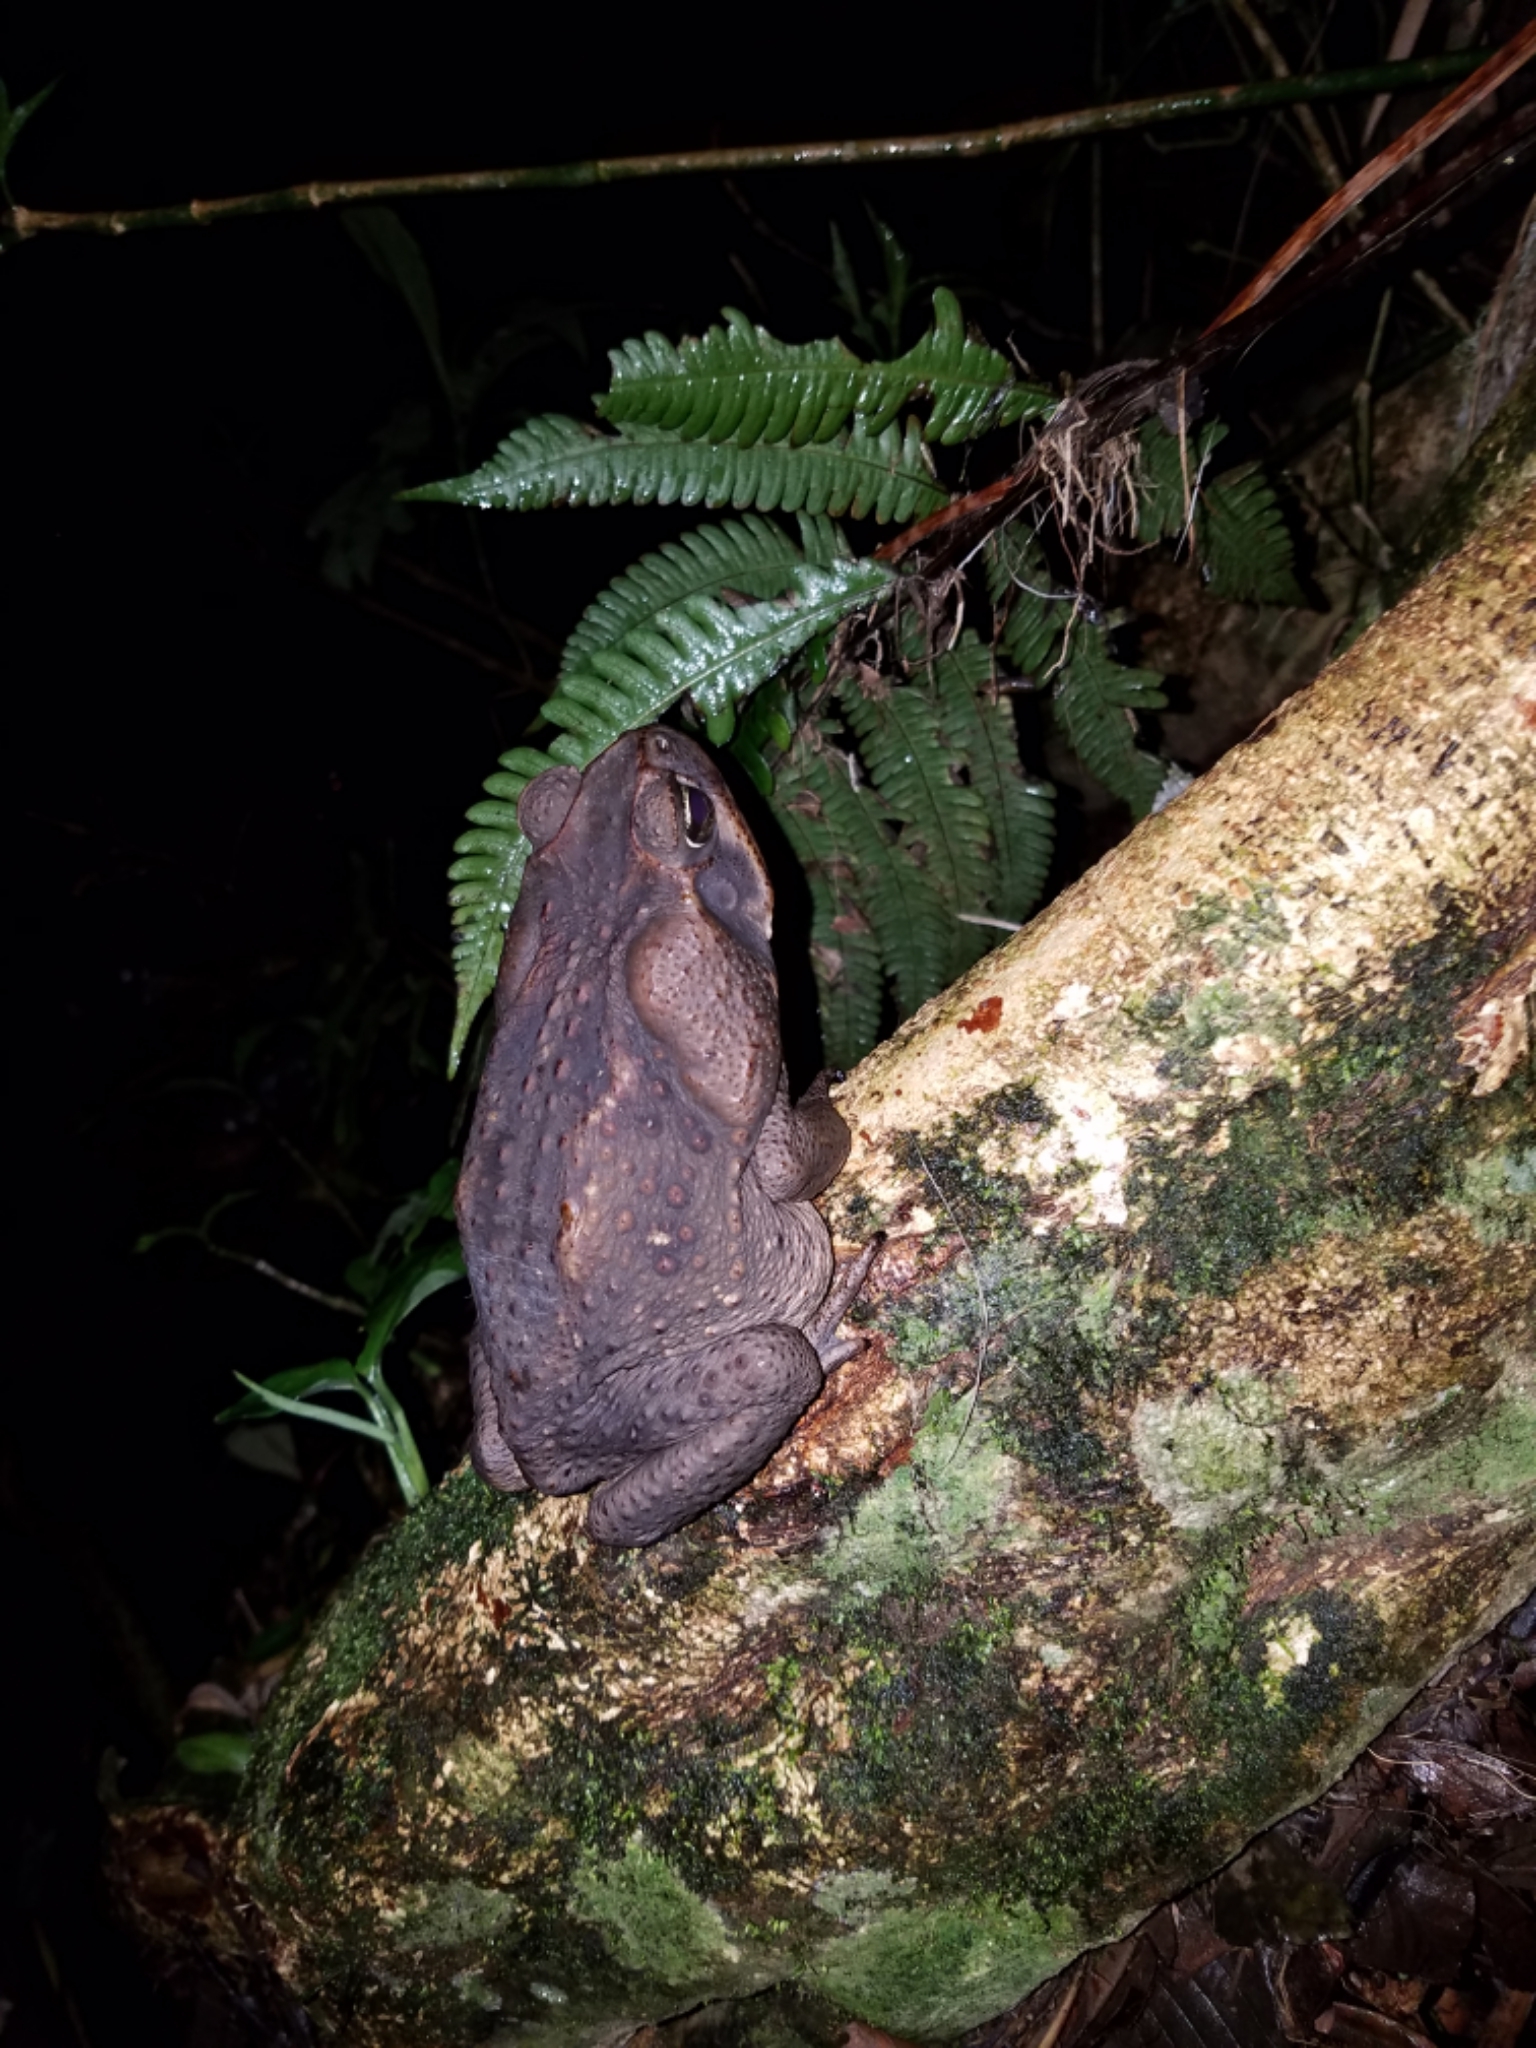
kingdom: Animalia
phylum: Chordata
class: Amphibia
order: Anura
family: Bufonidae
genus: Rhinella
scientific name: Rhinella horribilis
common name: Mesoamerican cane toad
